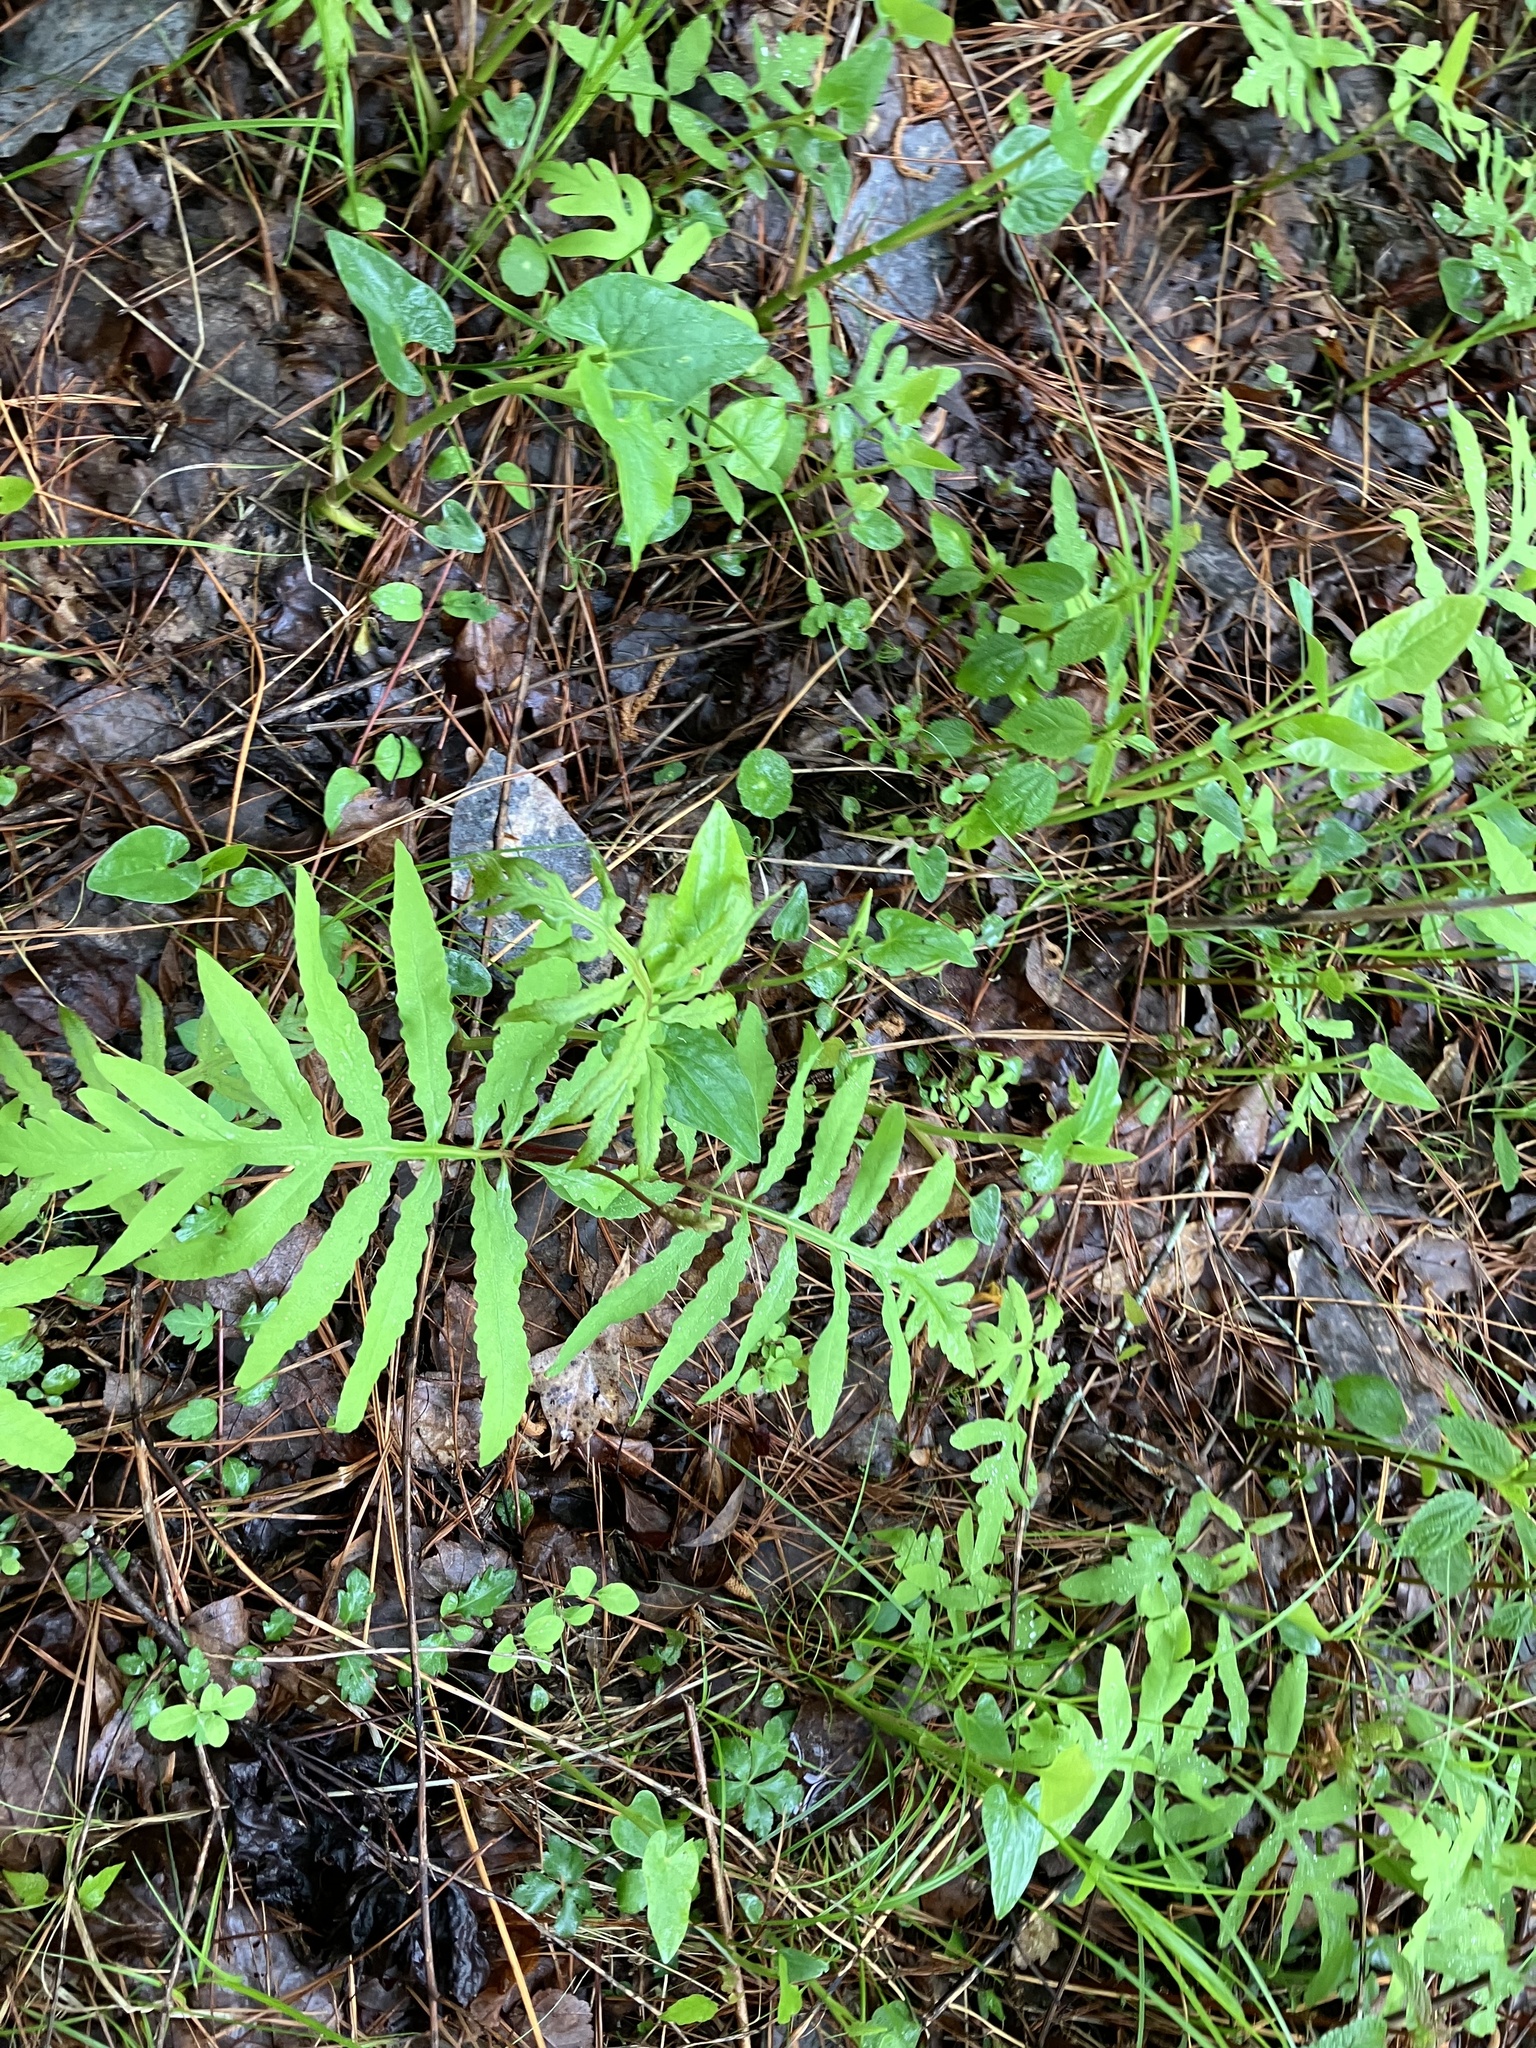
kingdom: Plantae
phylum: Tracheophyta
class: Polypodiopsida
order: Polypodiales
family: Onocleaceae
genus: Onoclea
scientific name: Onoclea sensibilis
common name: Sensitive fern
